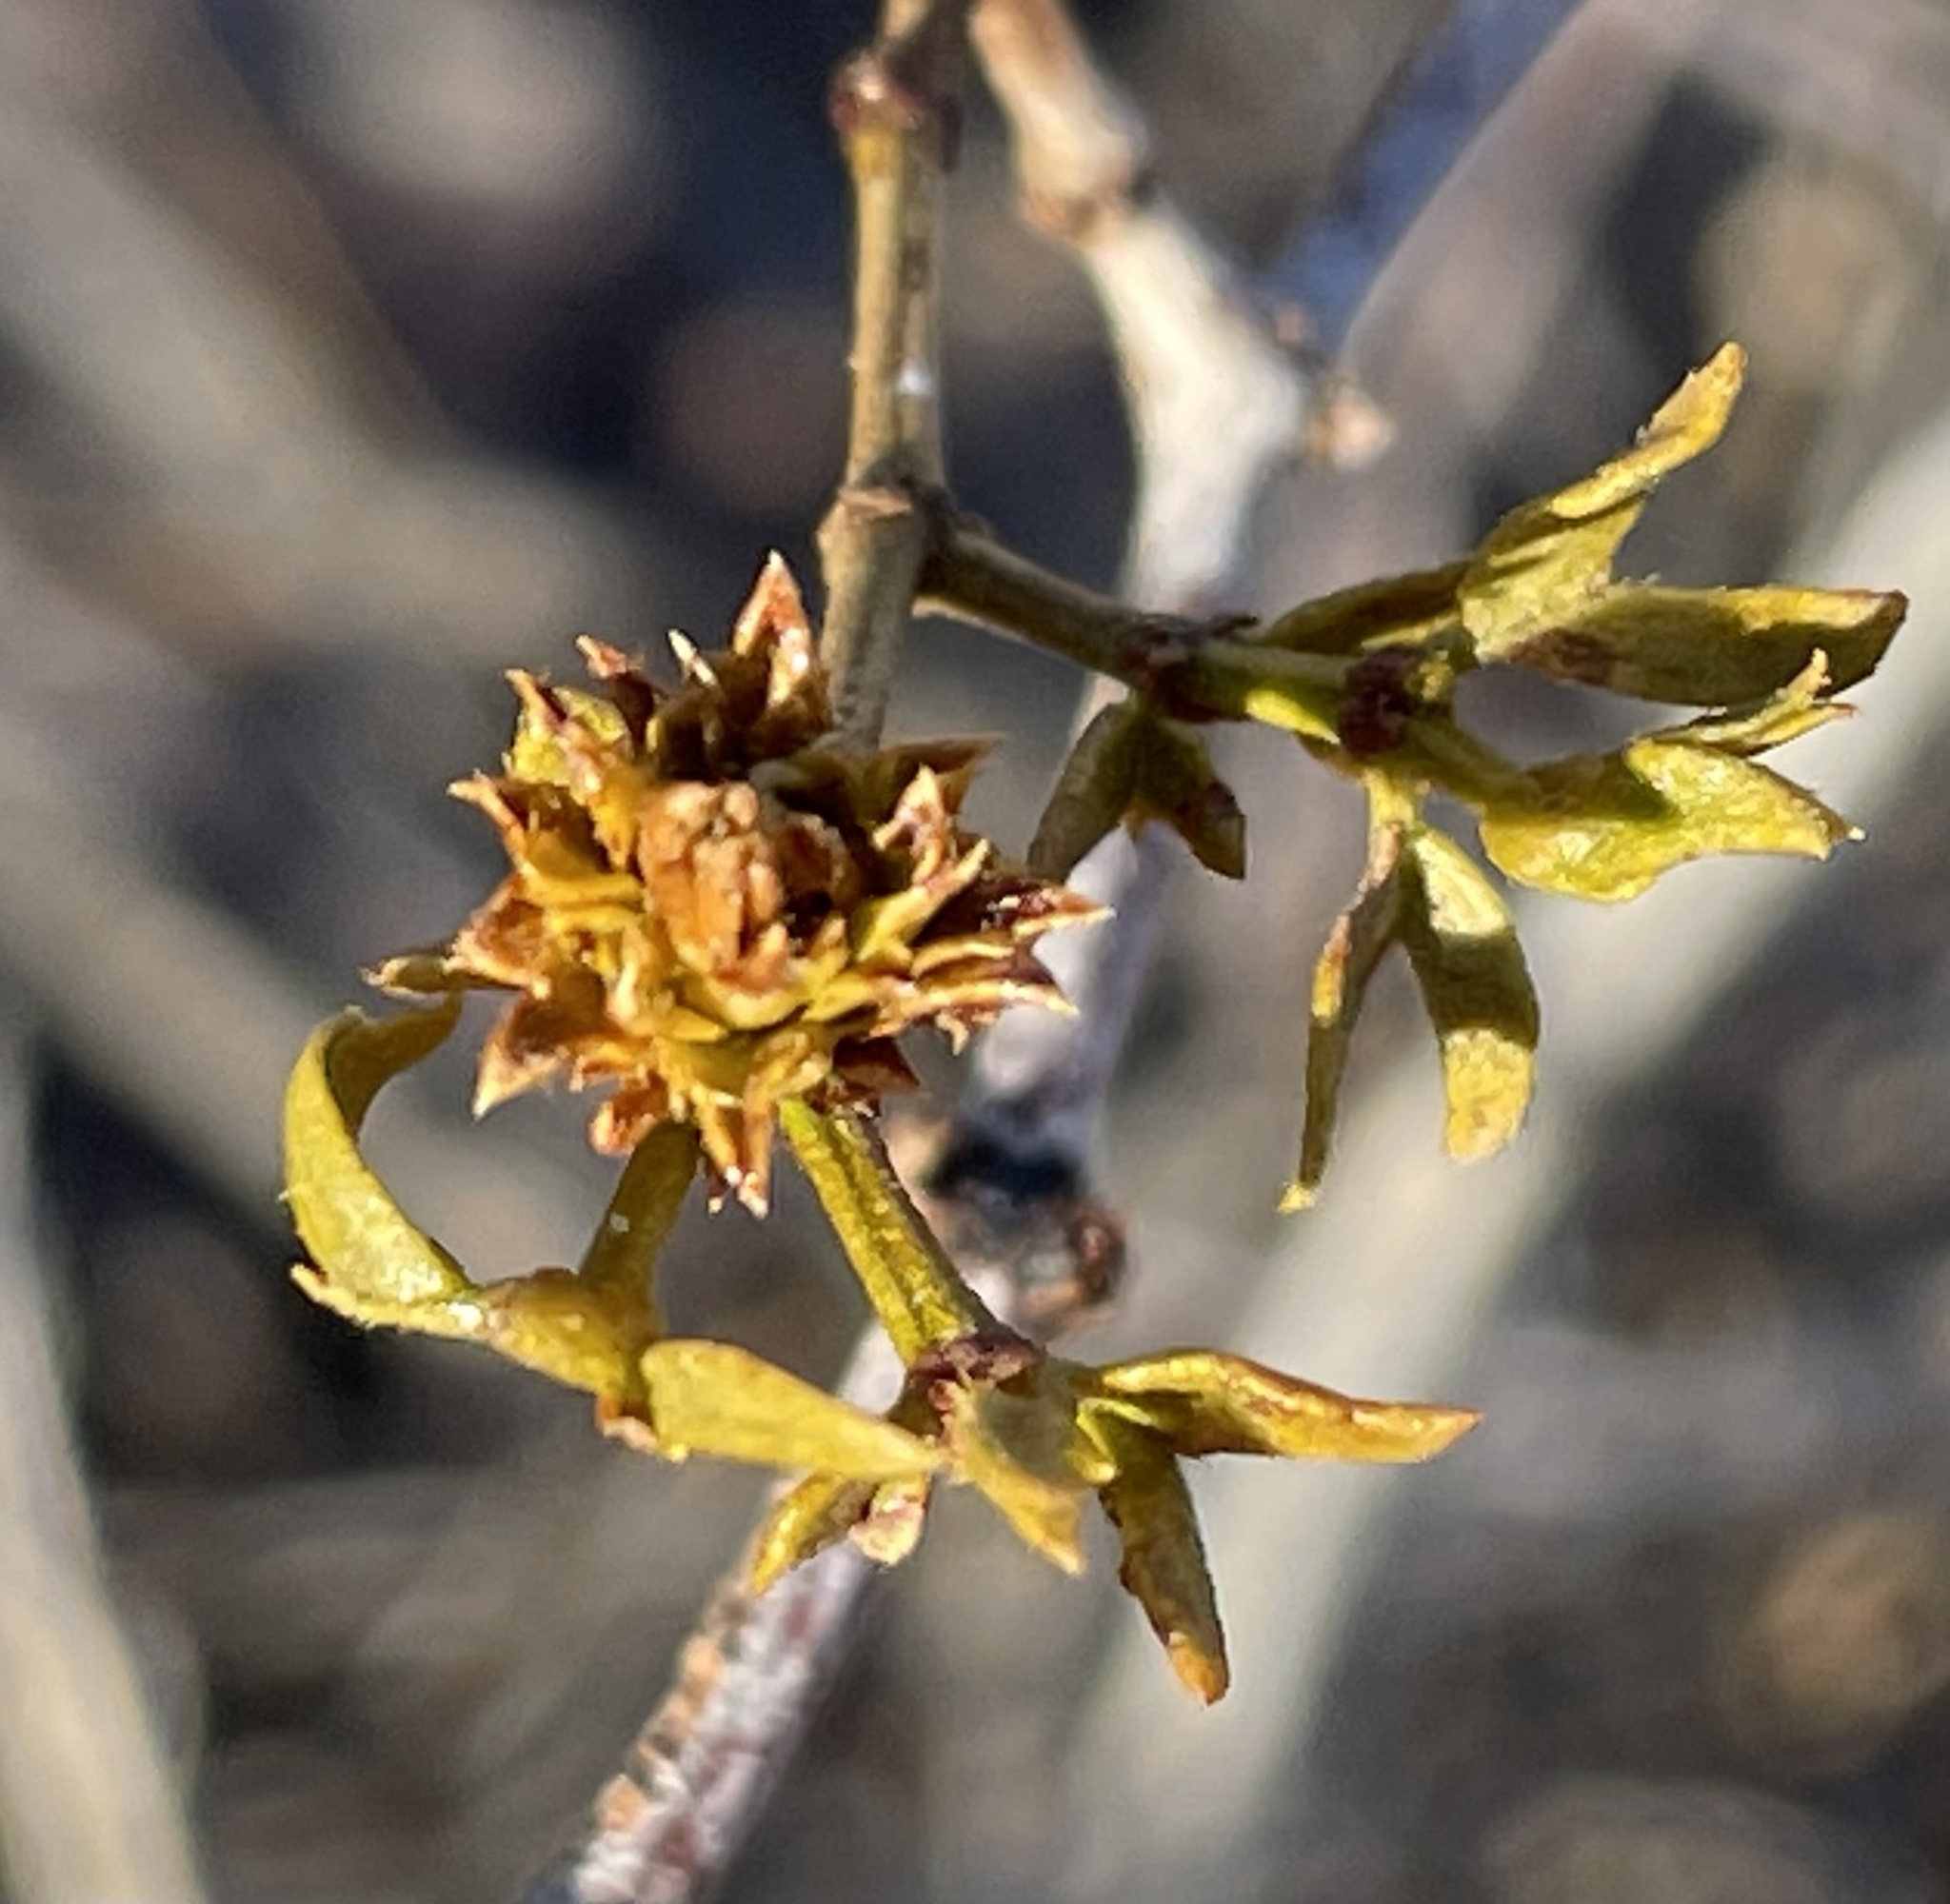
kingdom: Animalia
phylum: Arthropoda
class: Insecta
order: Diptera
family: Cecidomyiidae
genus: Asphondylia
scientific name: Asphondylia rosetta
